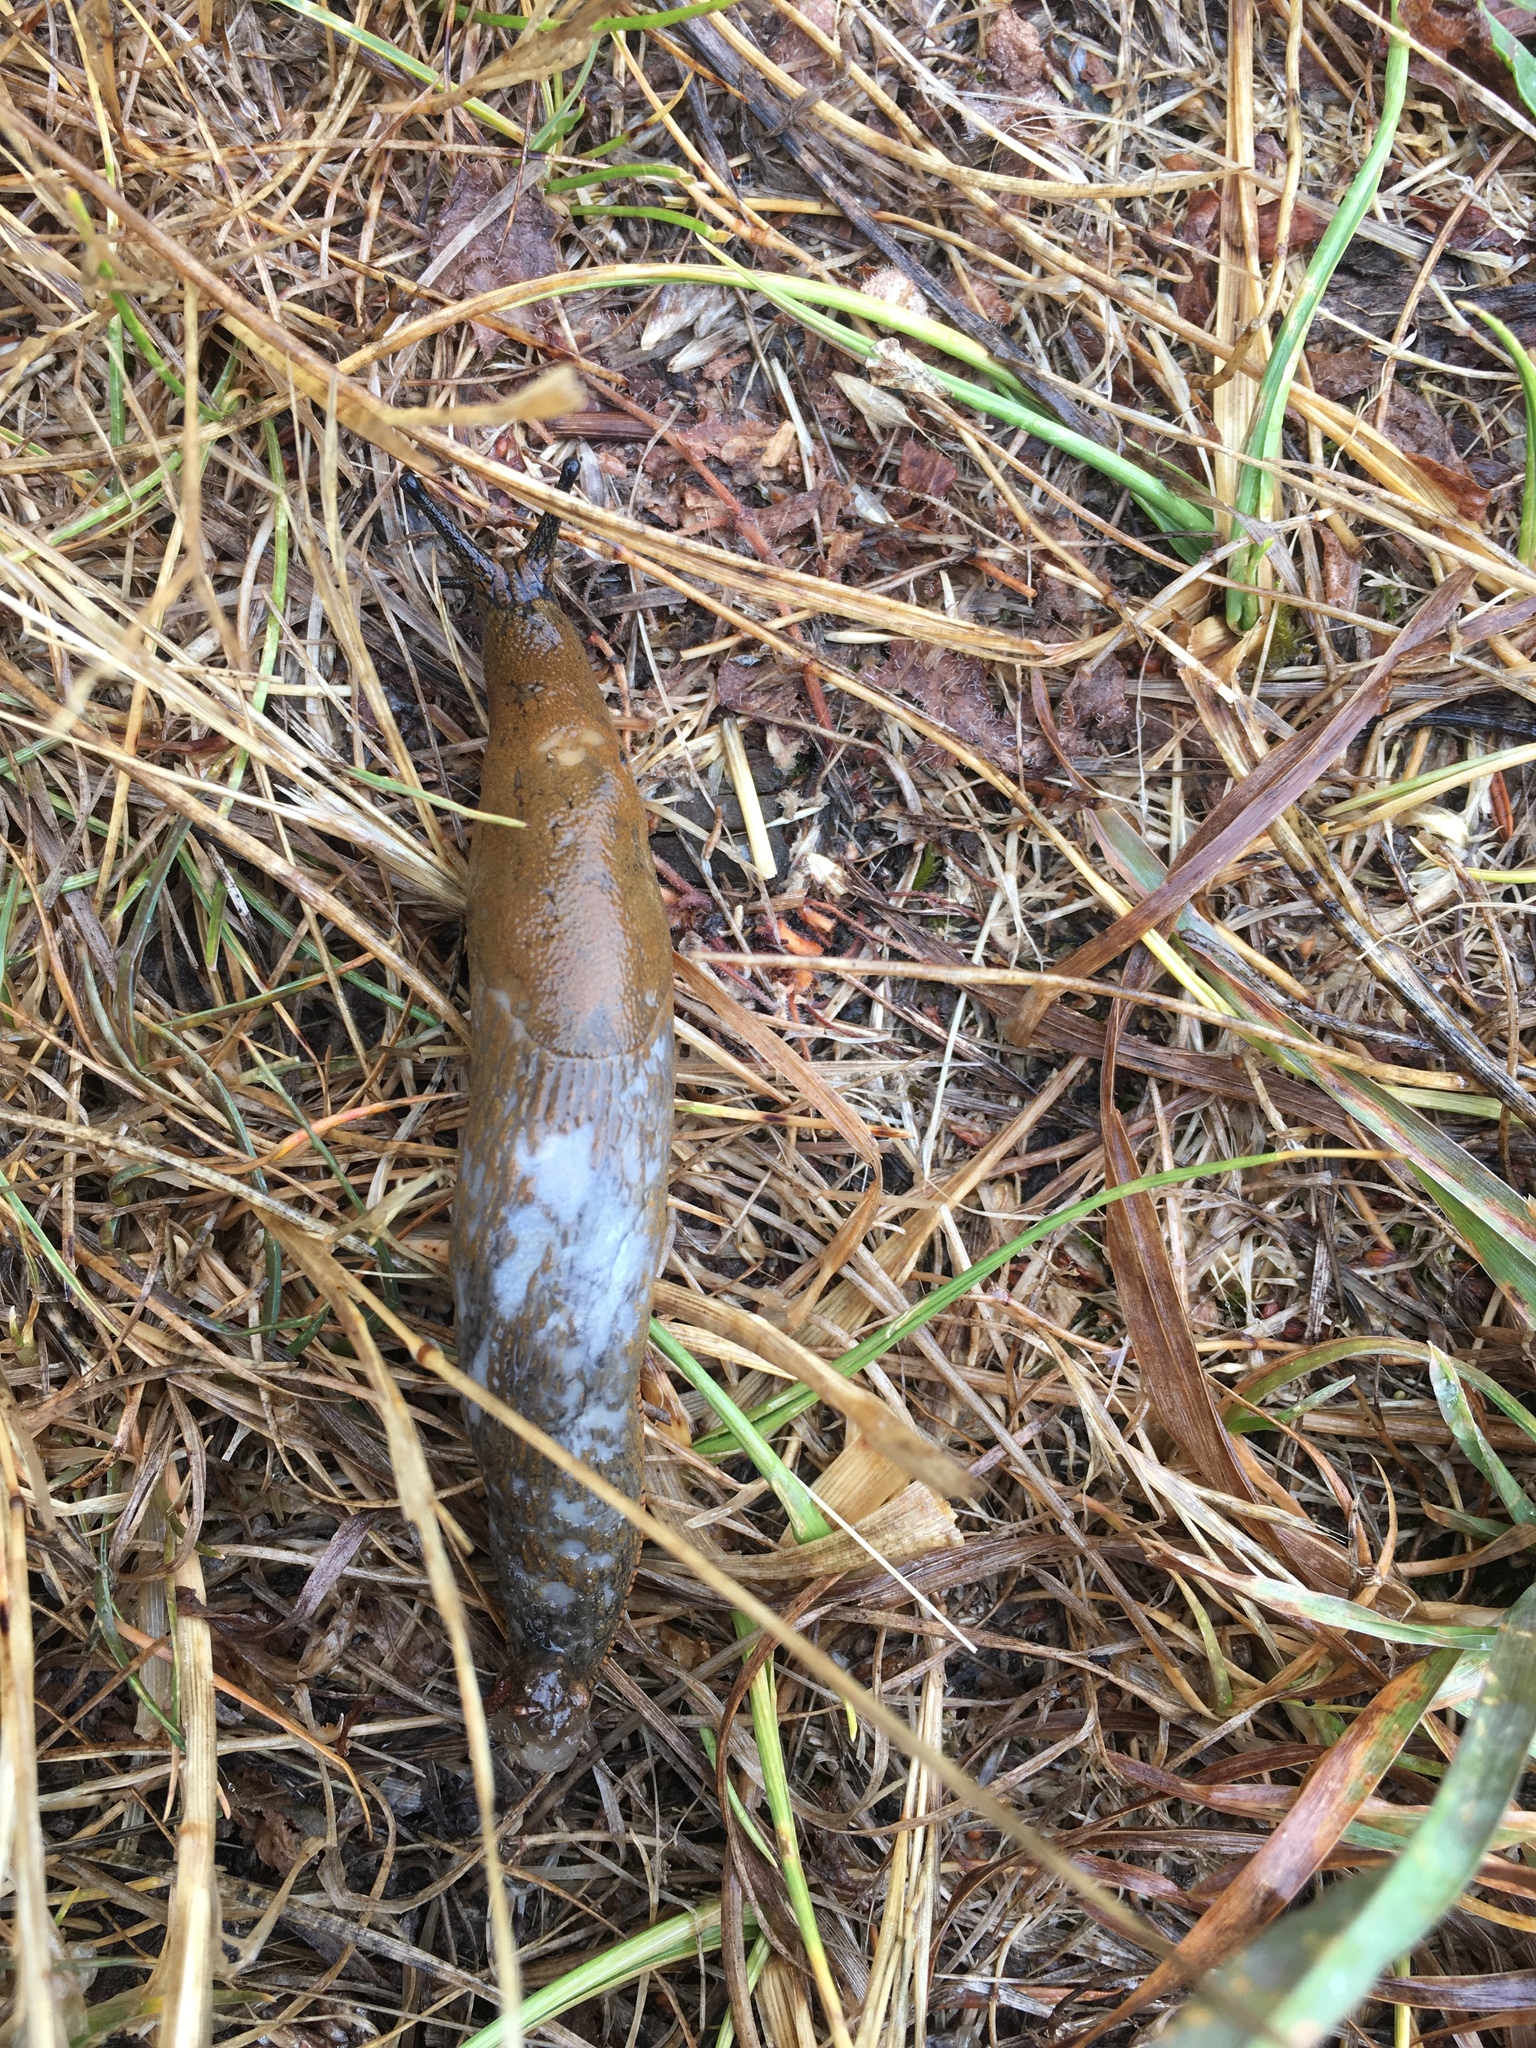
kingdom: Animalia
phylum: Mollusca
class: Gastropoda
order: Stylommatophora
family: Arionidae
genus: Arion
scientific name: Arion
